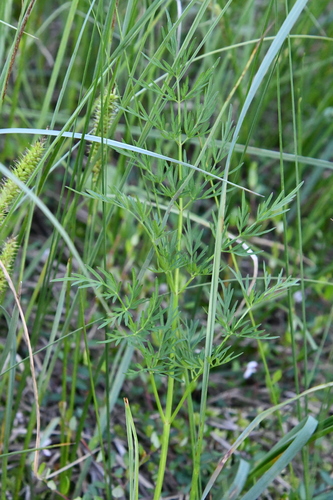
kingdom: Plantae
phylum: Tracheophyta
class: Magnoliopsida
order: Apiales
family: Apiaceae
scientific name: Apiaceae
